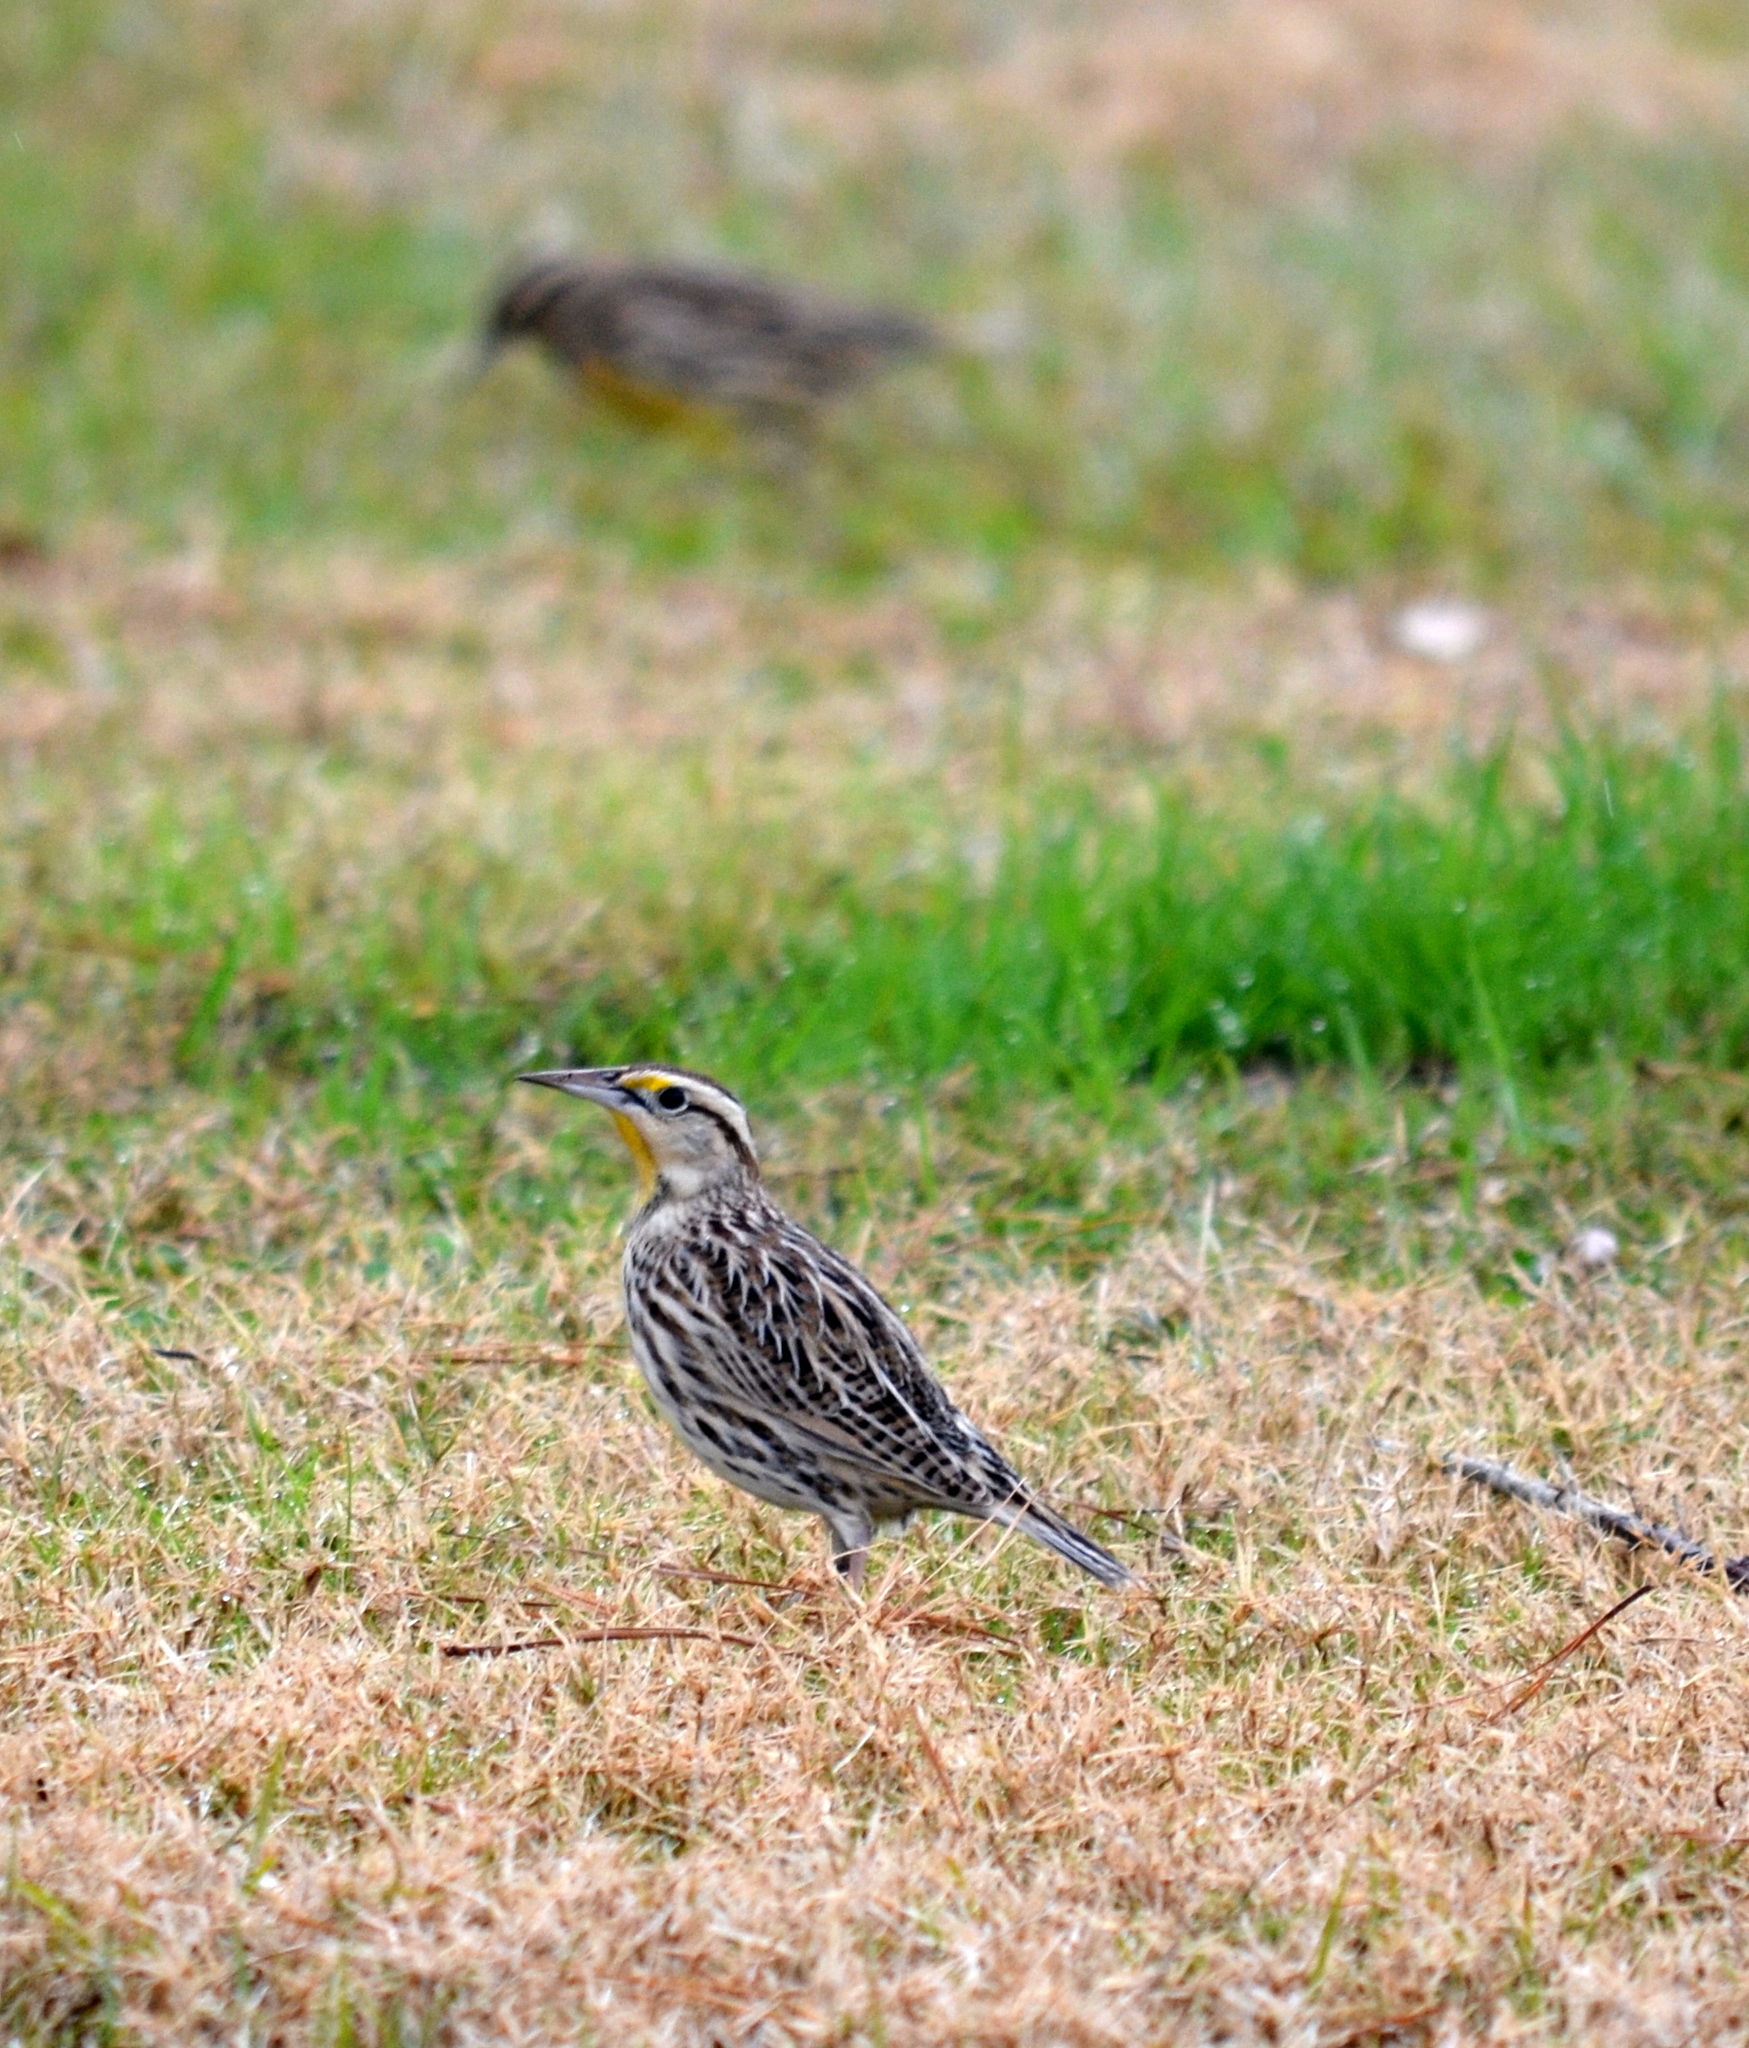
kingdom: Animalia
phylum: Chordata
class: Aves
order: Passeriformes
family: Icteridae
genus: Sturnella
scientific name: Sturnella magna
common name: Eastern meadowlark
